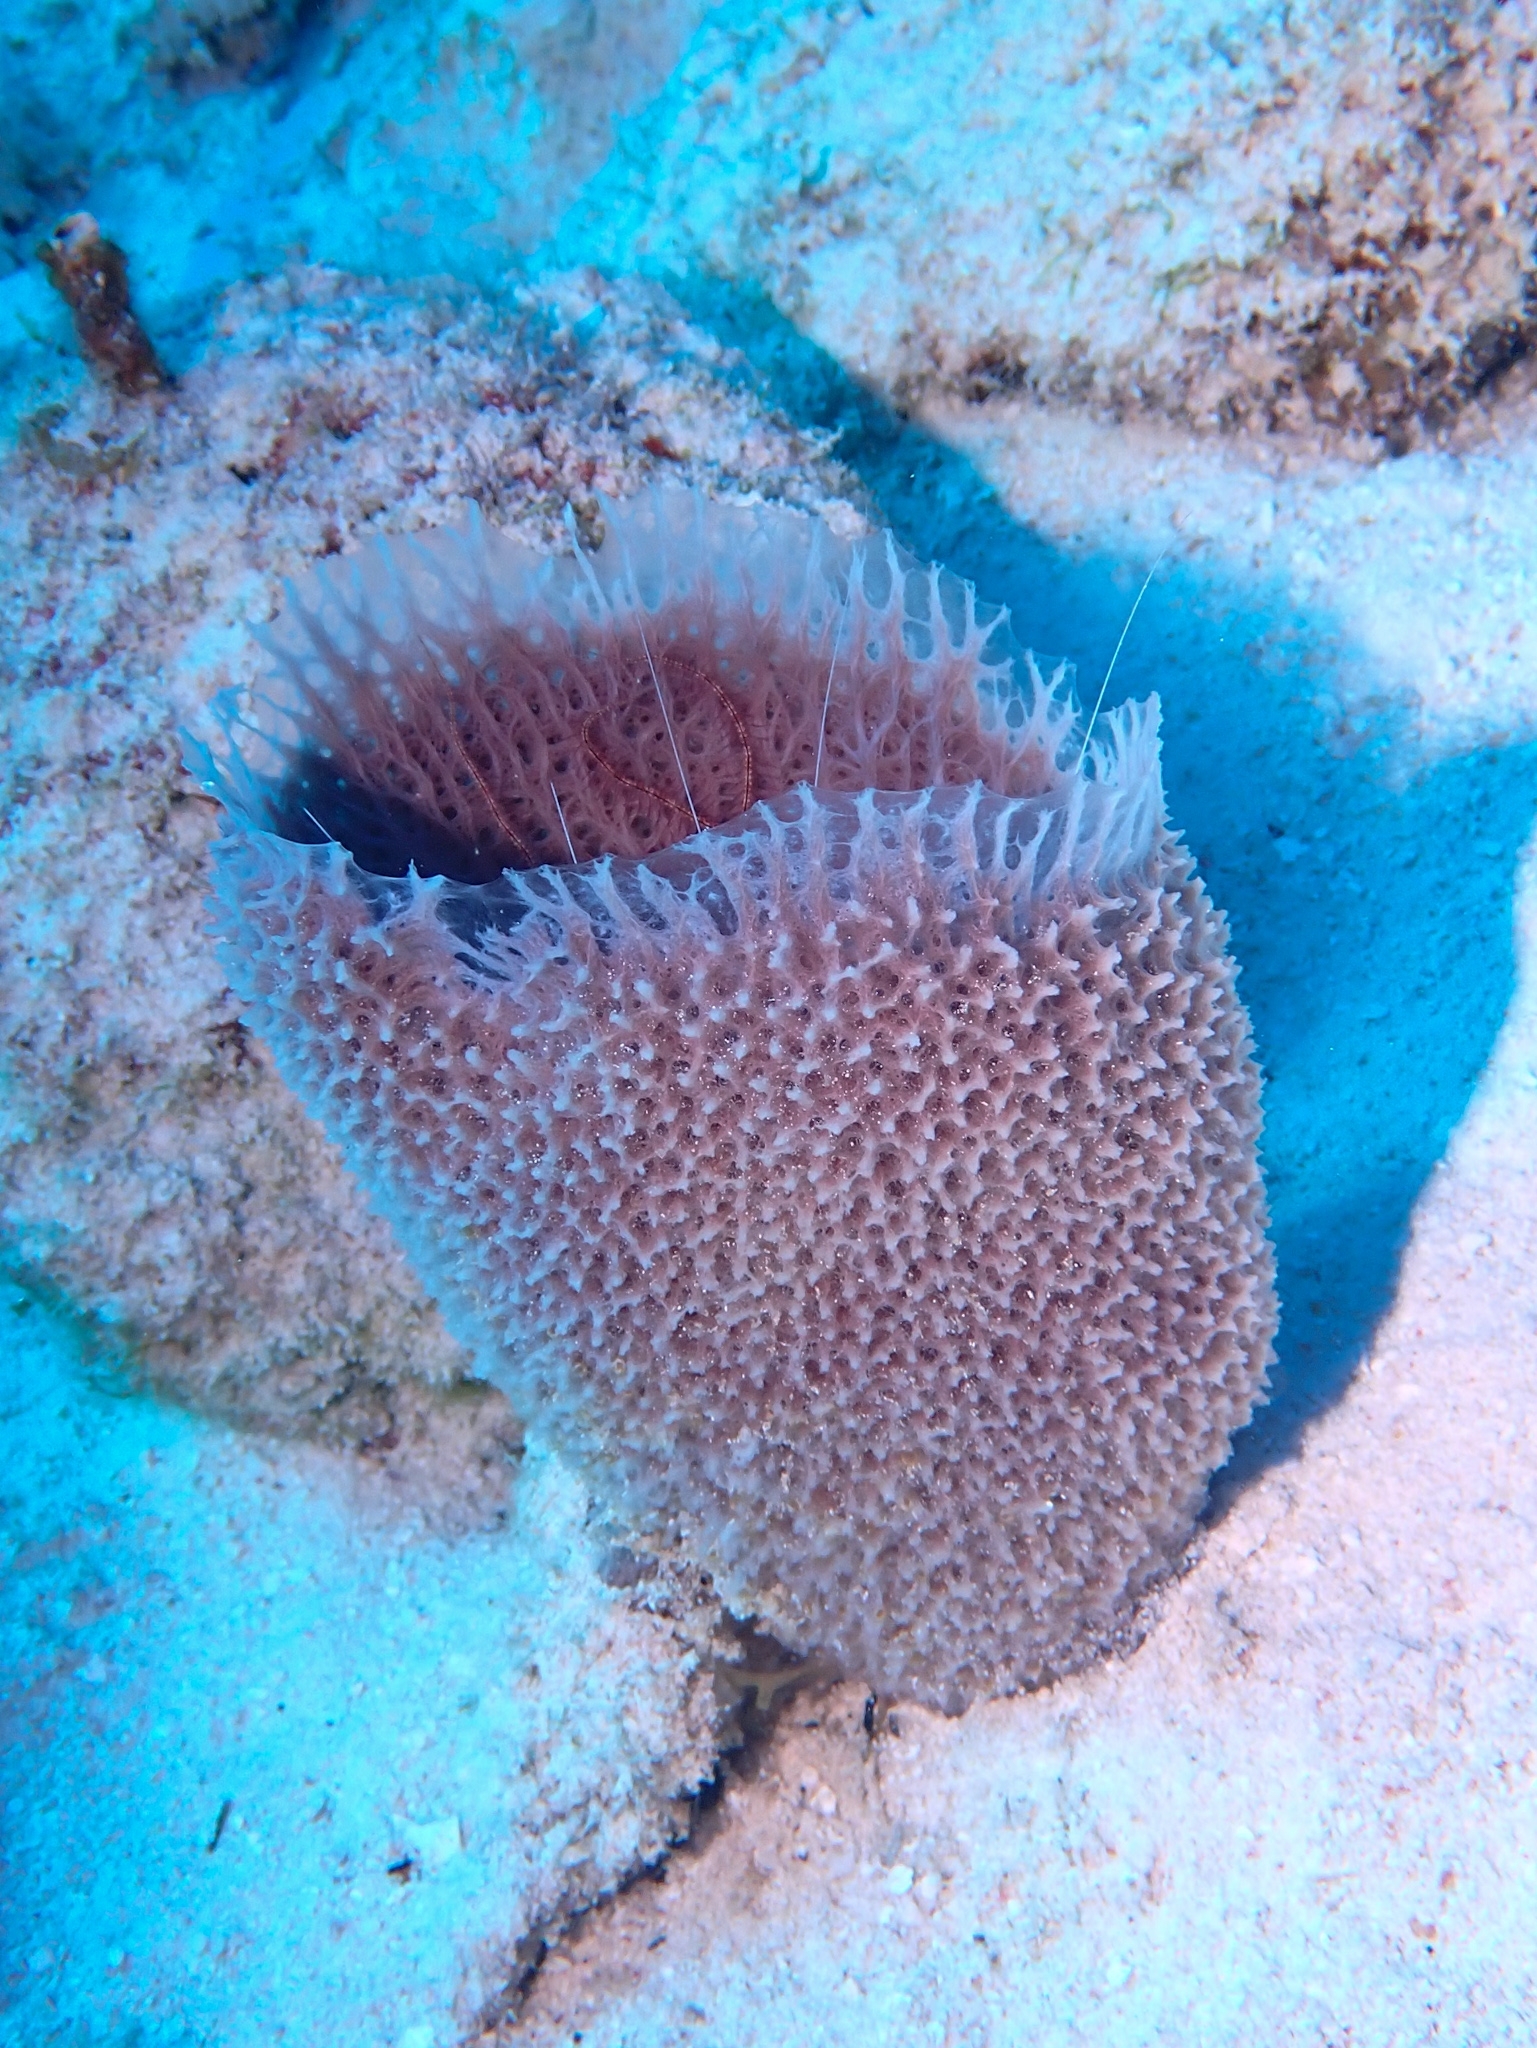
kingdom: Animalia
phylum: Porifera
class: Demospongiae
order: Haplosclerida
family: Niphatidae
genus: Niphates
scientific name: Niphates digitalis
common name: Pink vase sponge
